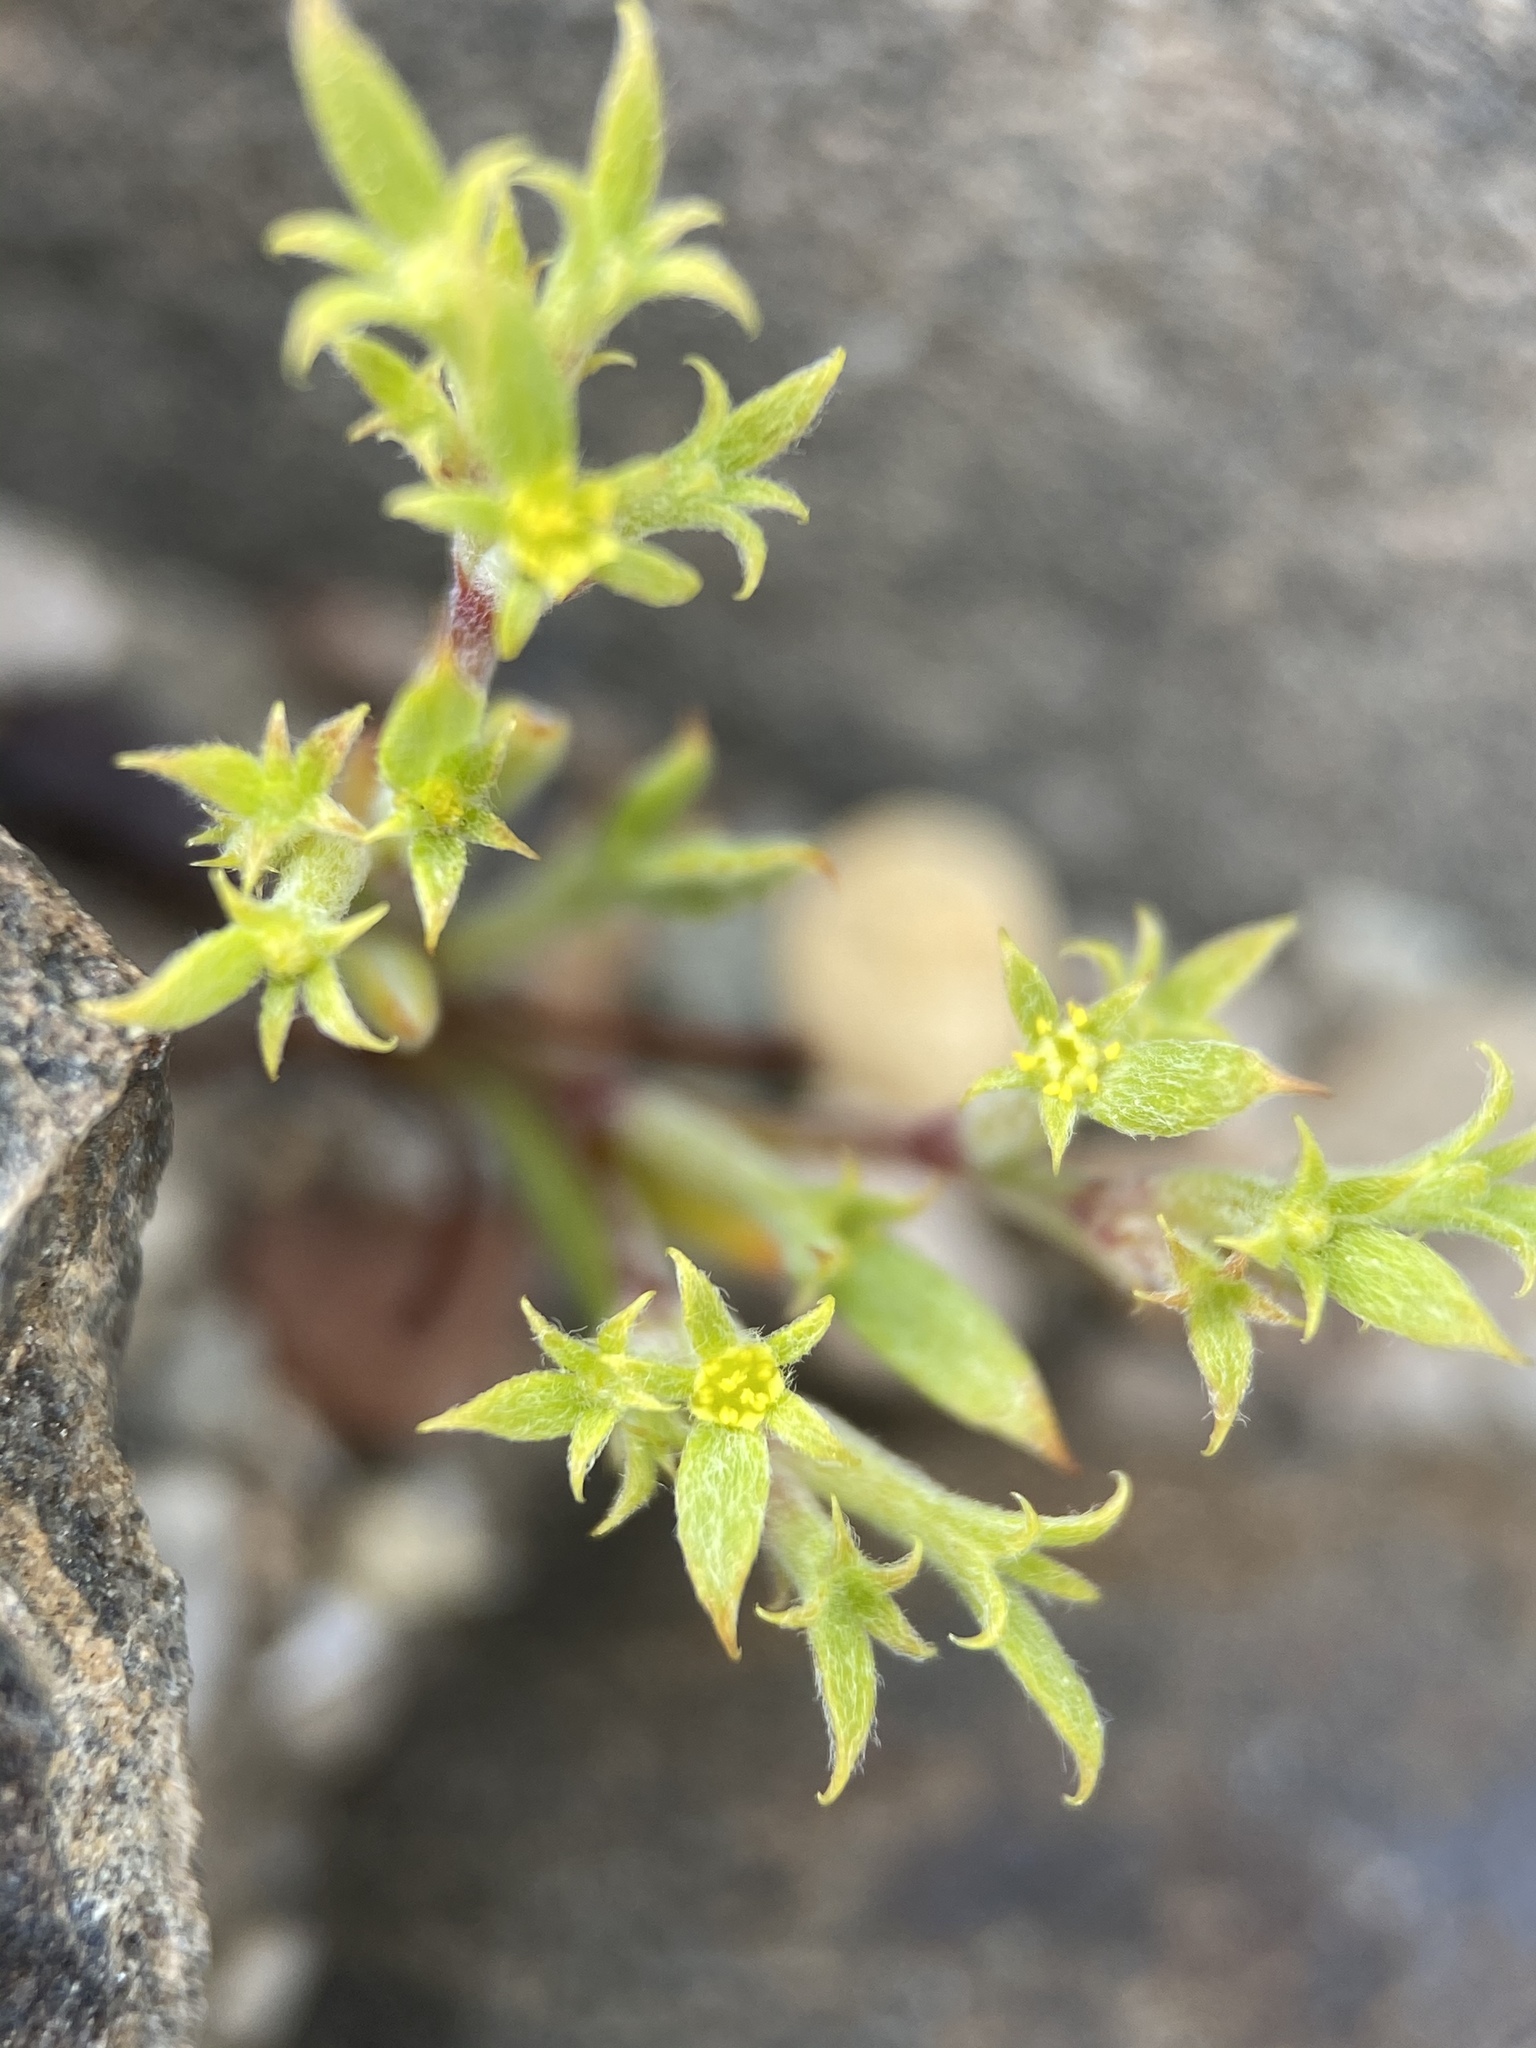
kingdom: Plantae
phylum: Tracheophyta
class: Magnoliopsida
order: Caryophyllales
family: Polygonaceae
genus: Chorizanthe
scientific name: Chorizanthe watsonii
